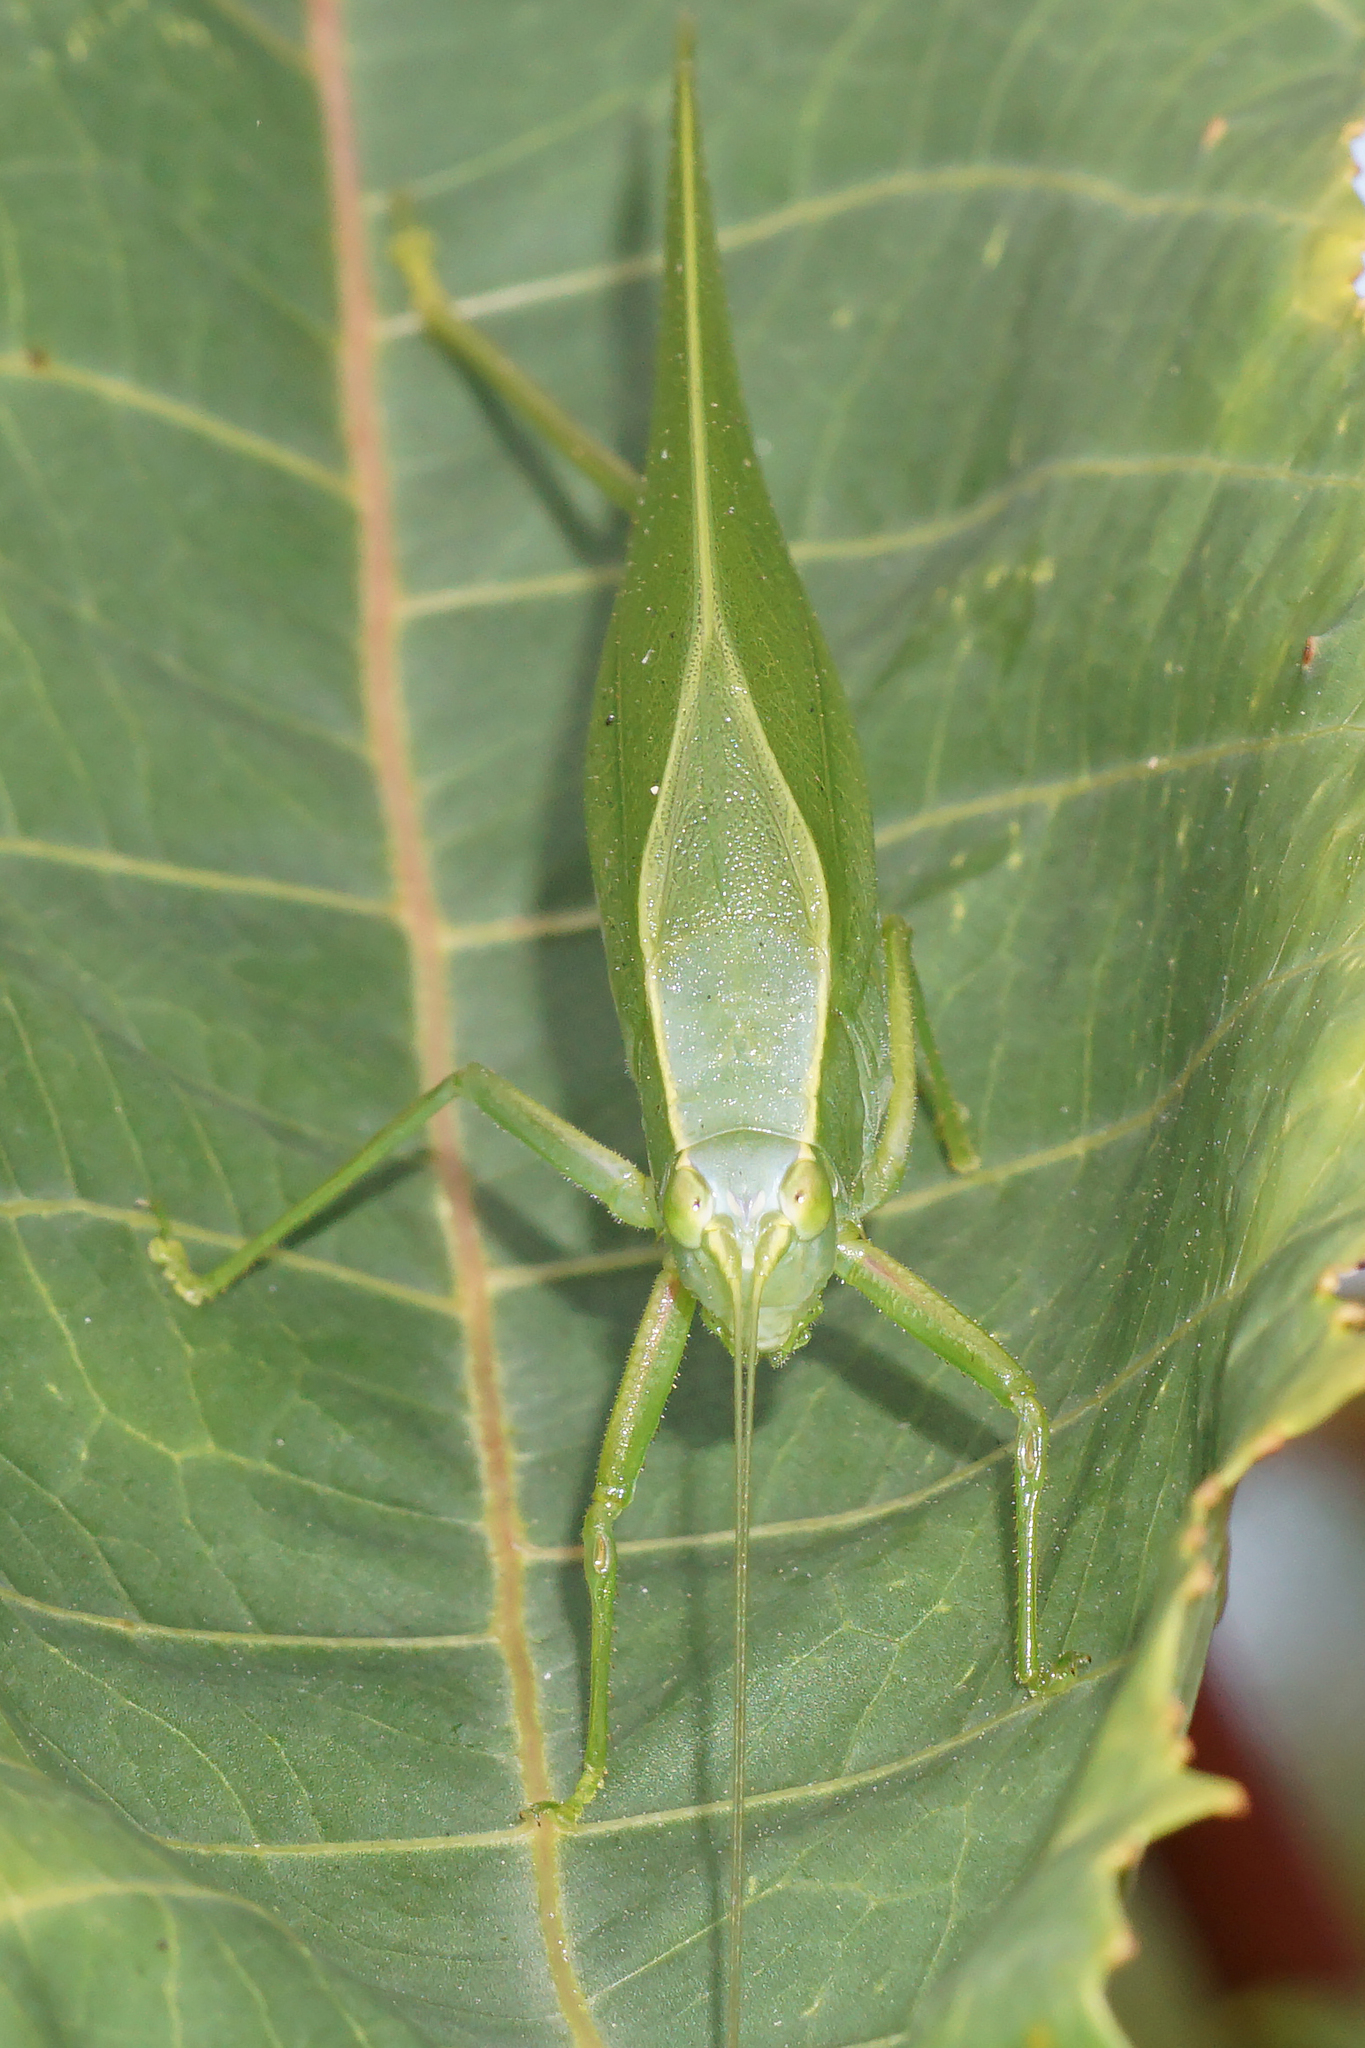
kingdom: Animalia
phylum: Arthropoda
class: Insecta
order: Orthoptera
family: Tettigoniidae
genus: Turpilia
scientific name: Turpilia rostrata
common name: Narrow-beaked katydid
